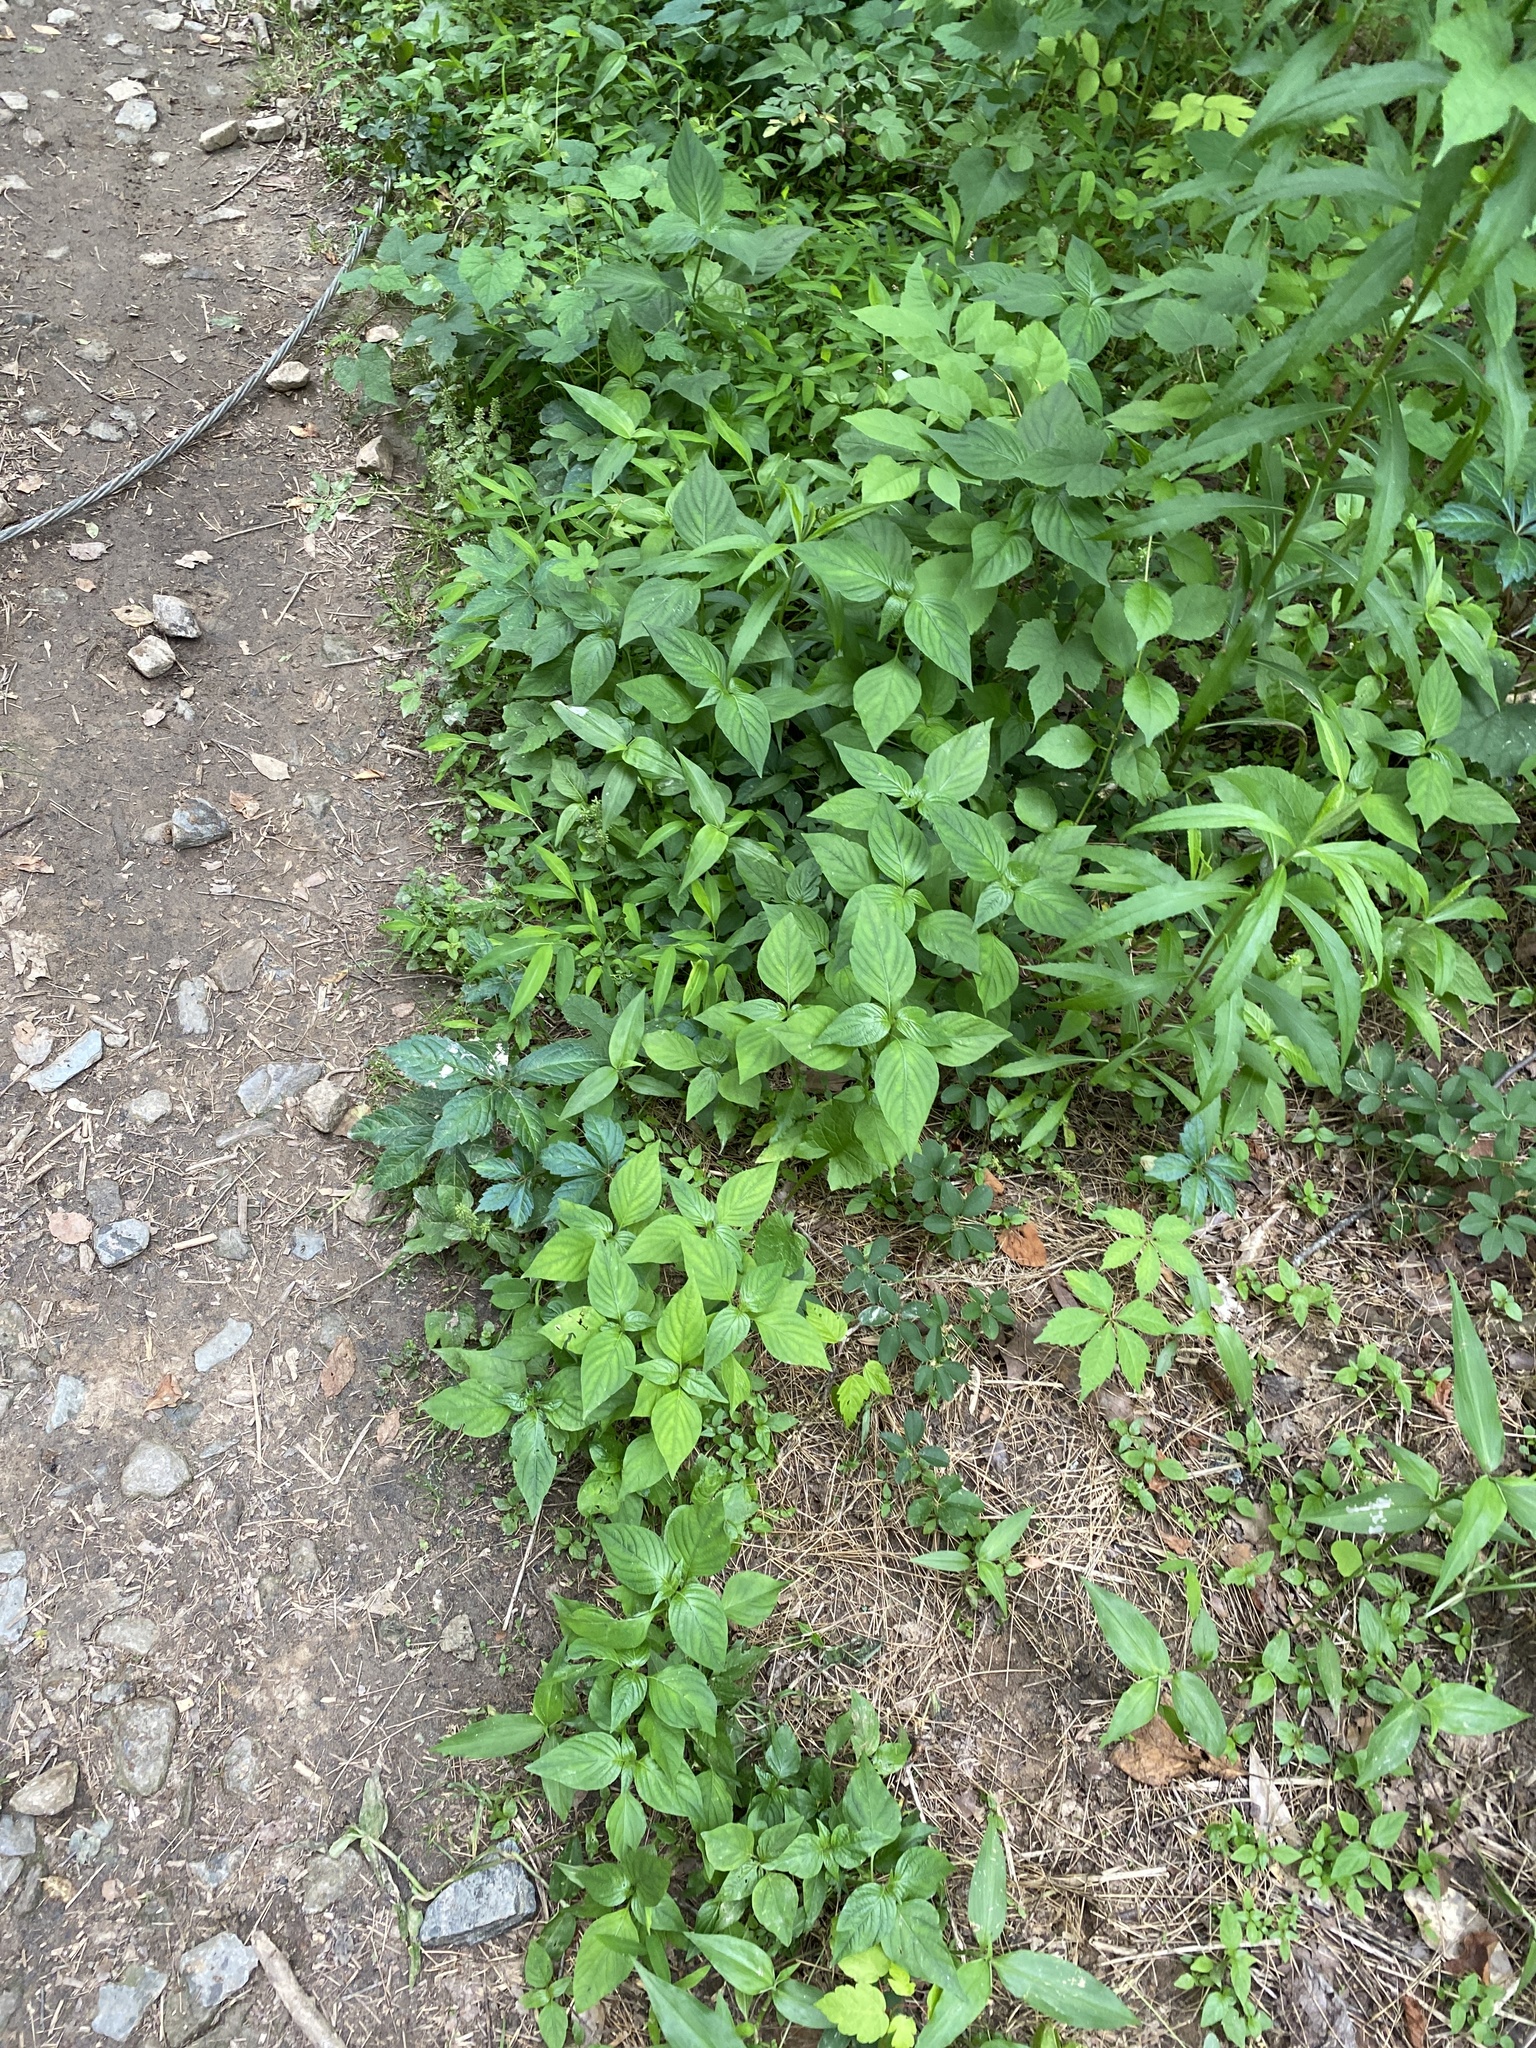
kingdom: Plantae
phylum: Tracheophyta
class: Magnoliopsida
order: Caryophyllales
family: Amaranthaceae
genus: Achyranthes
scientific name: Achyranthes bidentata
